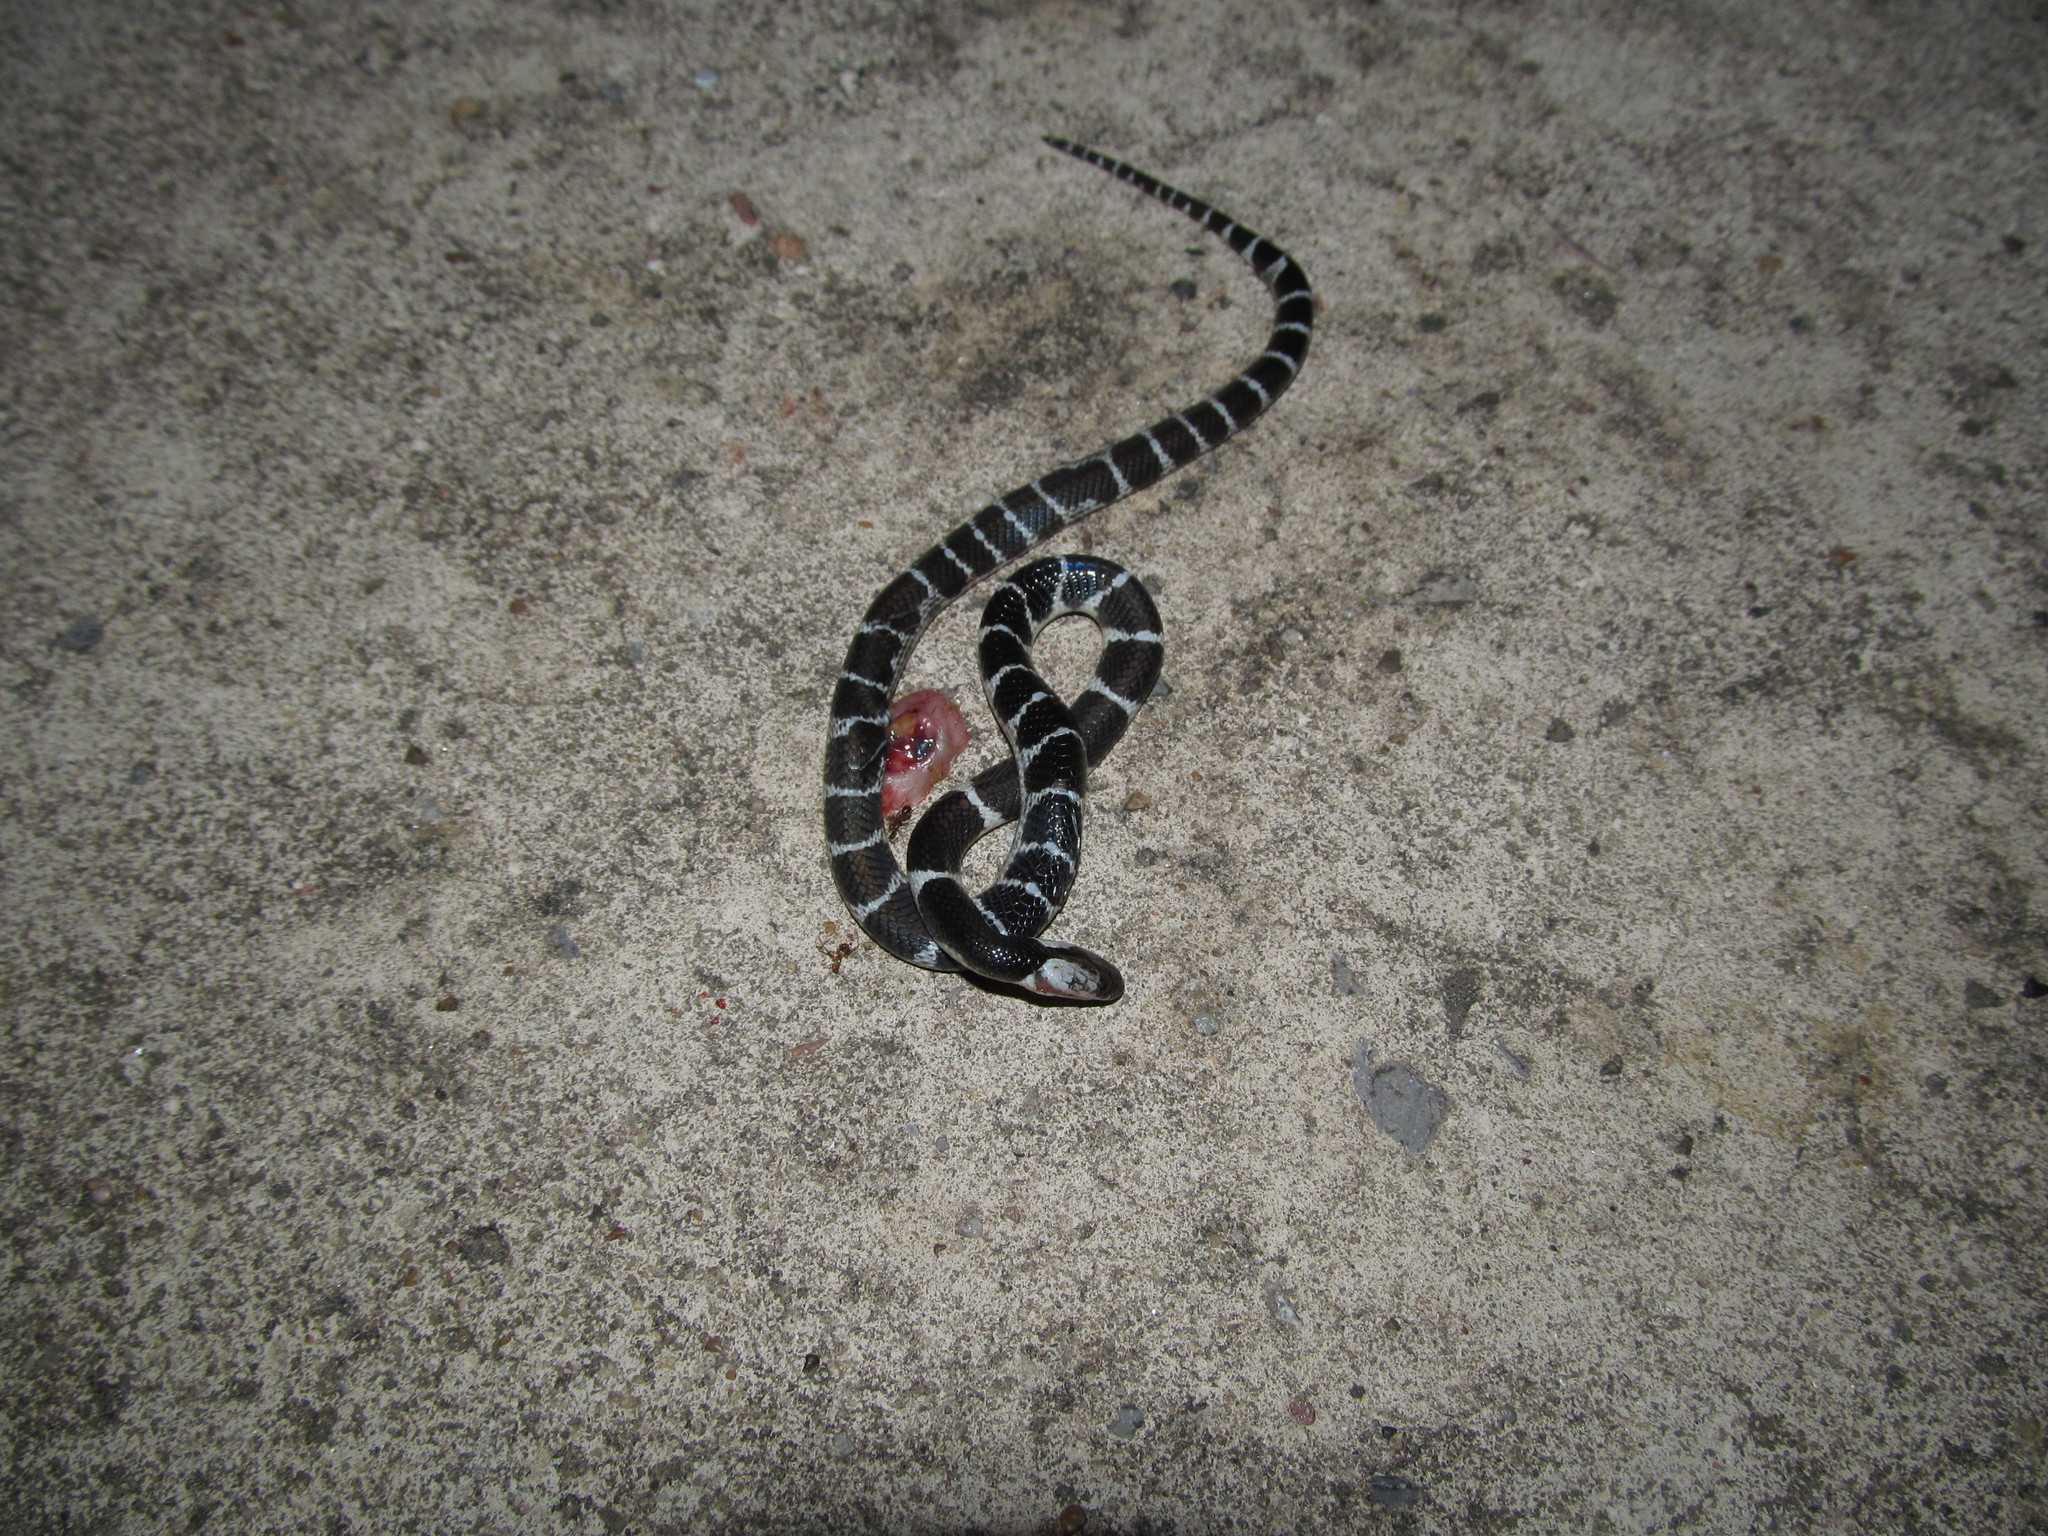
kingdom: Animalia
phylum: Chordata
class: Squamata
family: Elapidae
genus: Bungarus
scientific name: Bungarus multicinctus
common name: Many-banded krait
